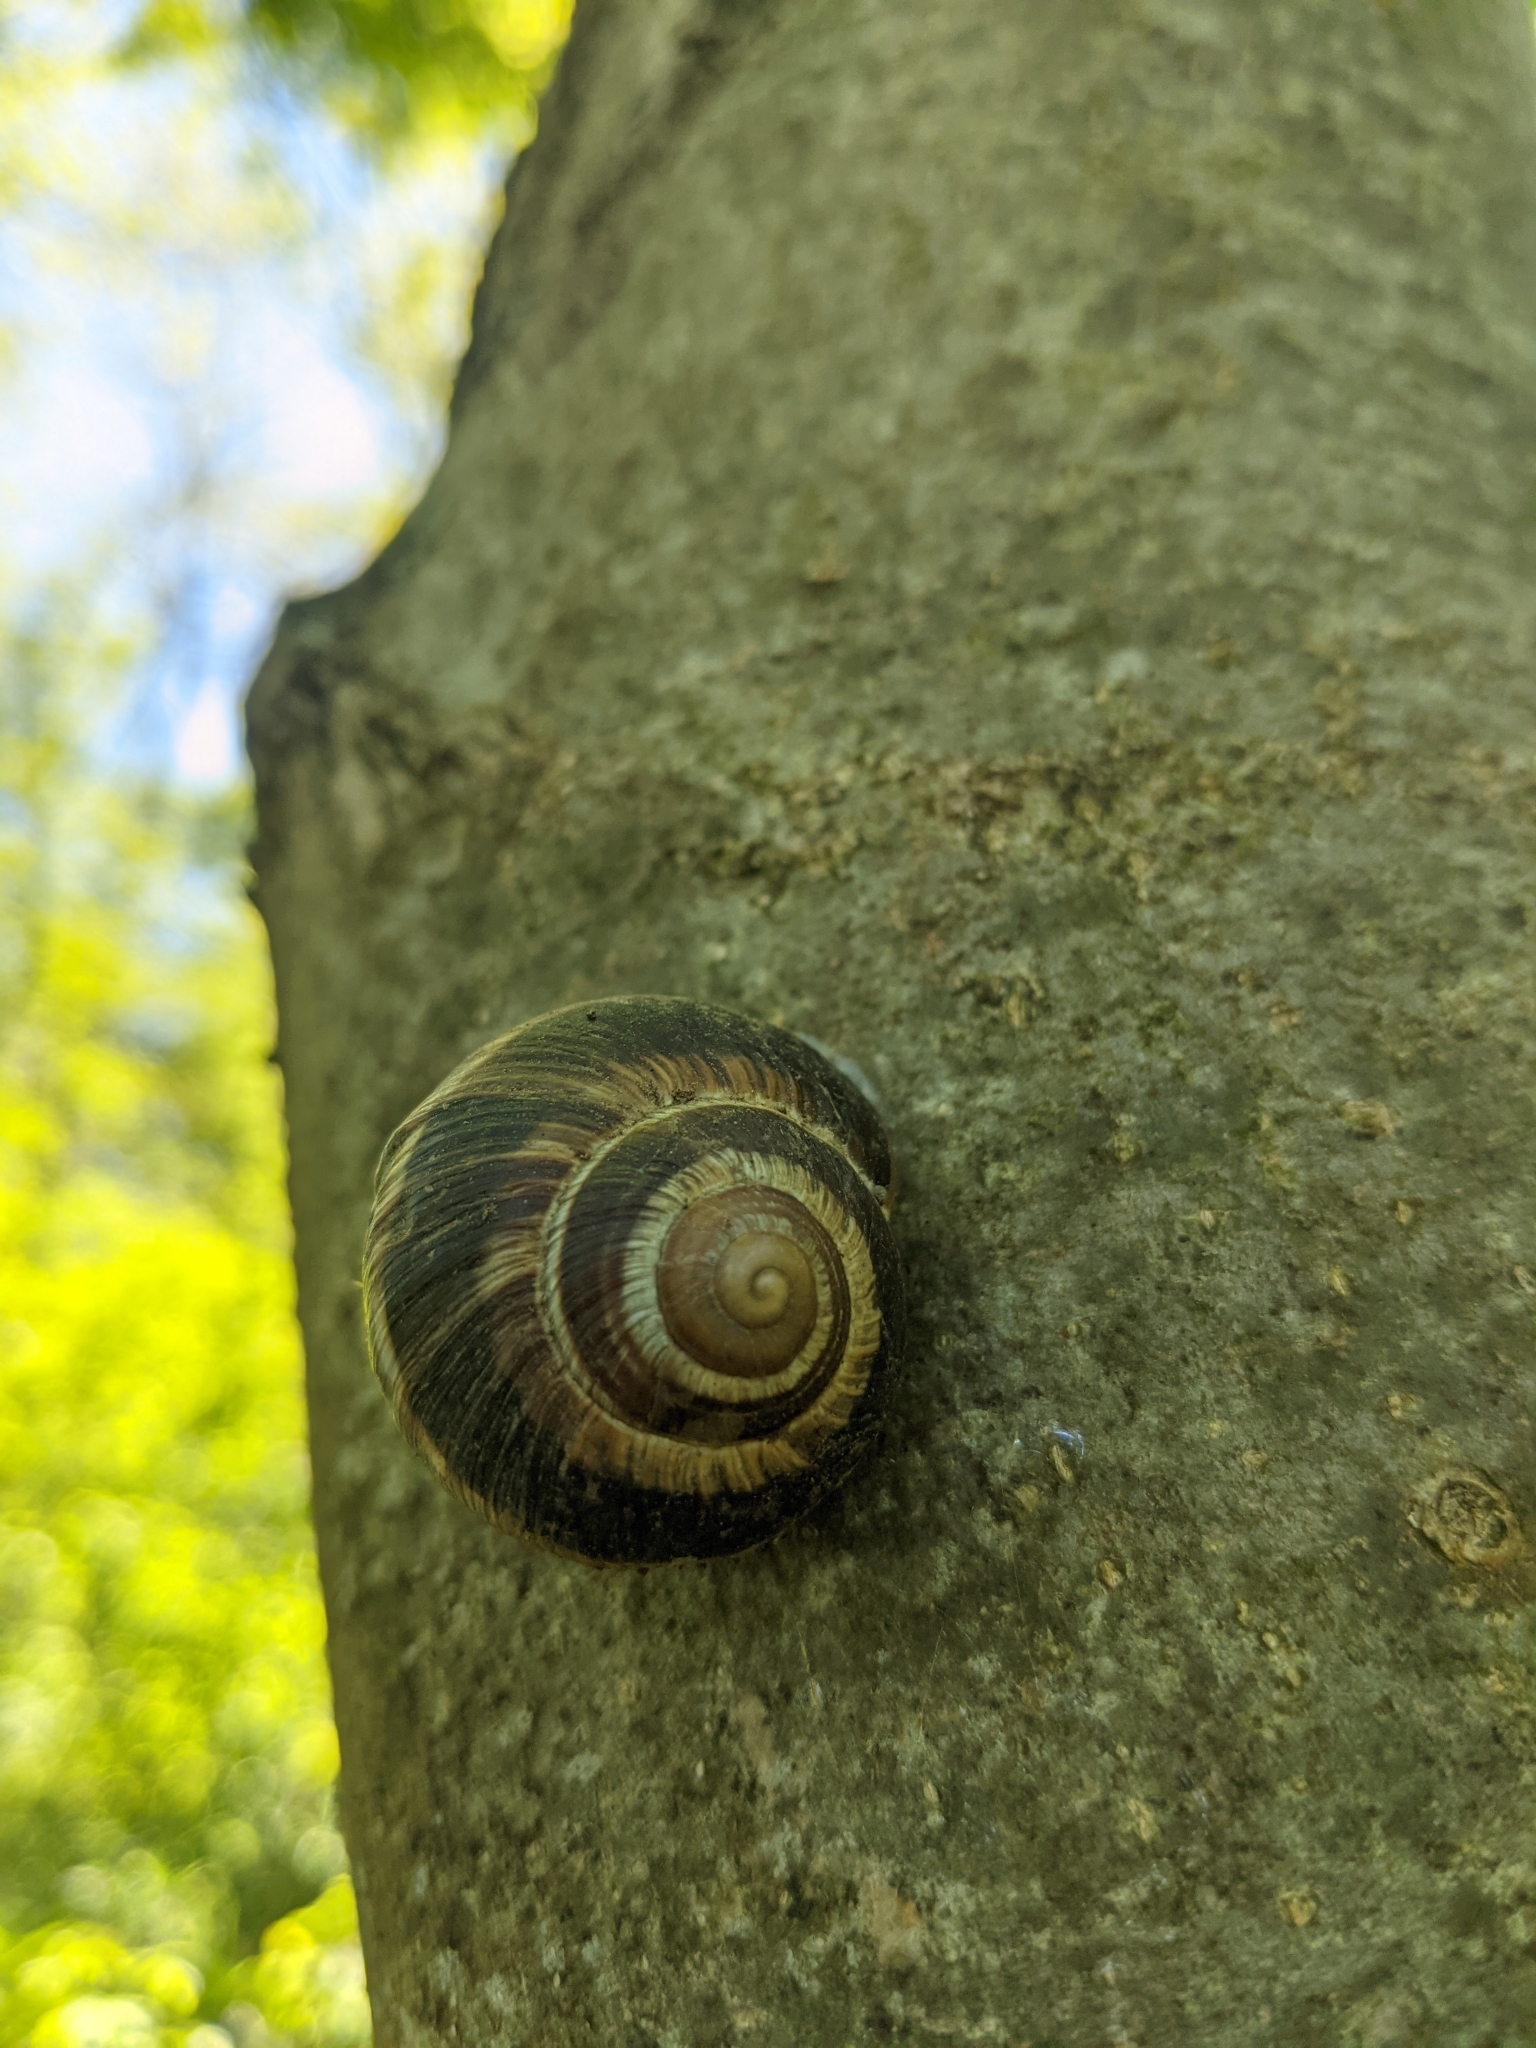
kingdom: Animalia
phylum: Mollusca
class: Gastropoda
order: Stylommatophora
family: Helicidae
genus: Helix
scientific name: Helix lucorum
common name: Turkish snail
